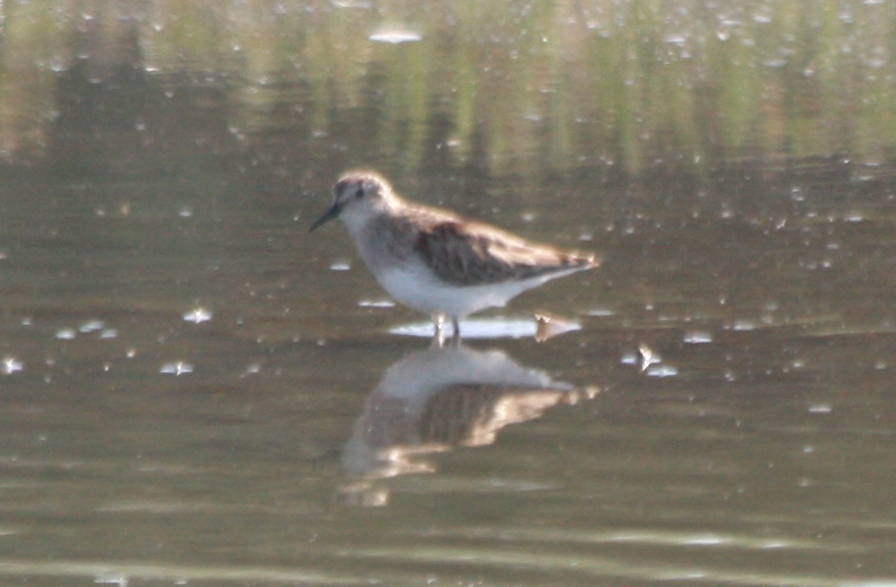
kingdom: Animalia
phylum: Chordata
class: Aves
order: Charadriiformes
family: Scolopacidae
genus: Calidris
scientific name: Calidris minutilla
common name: Least sandpiper
